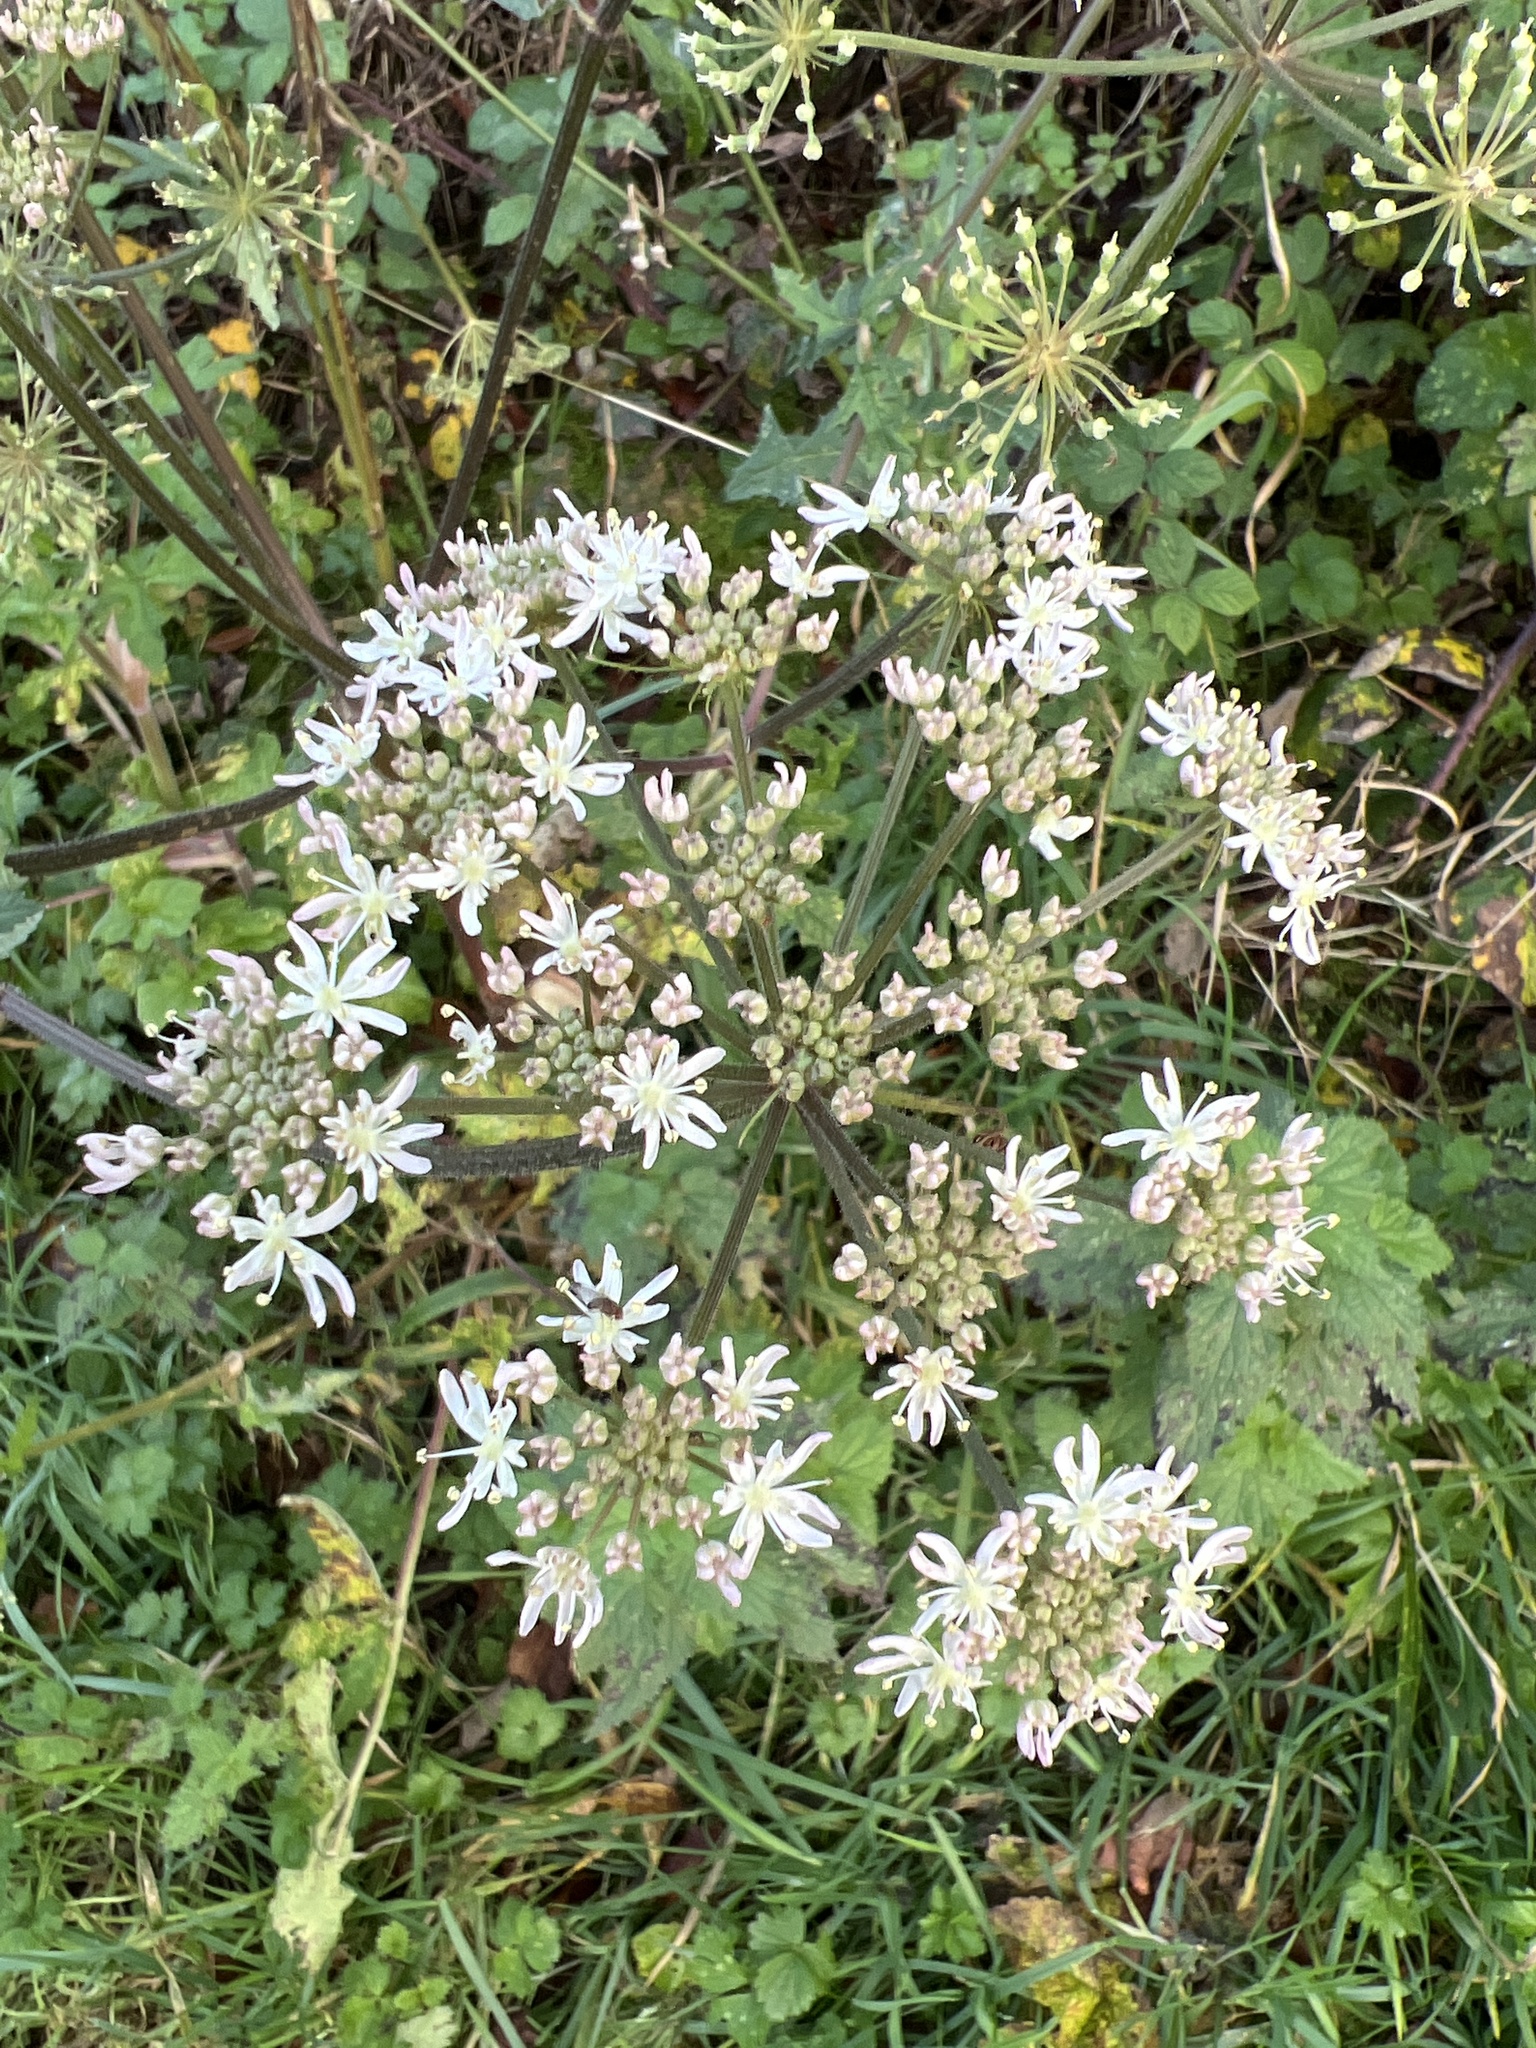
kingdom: Plantae
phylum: Tracheophyta
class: Magnoliopsida
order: Apiales
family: Apiaceae
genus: Heracleum
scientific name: Heracleum sphondylium
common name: Hogweed
